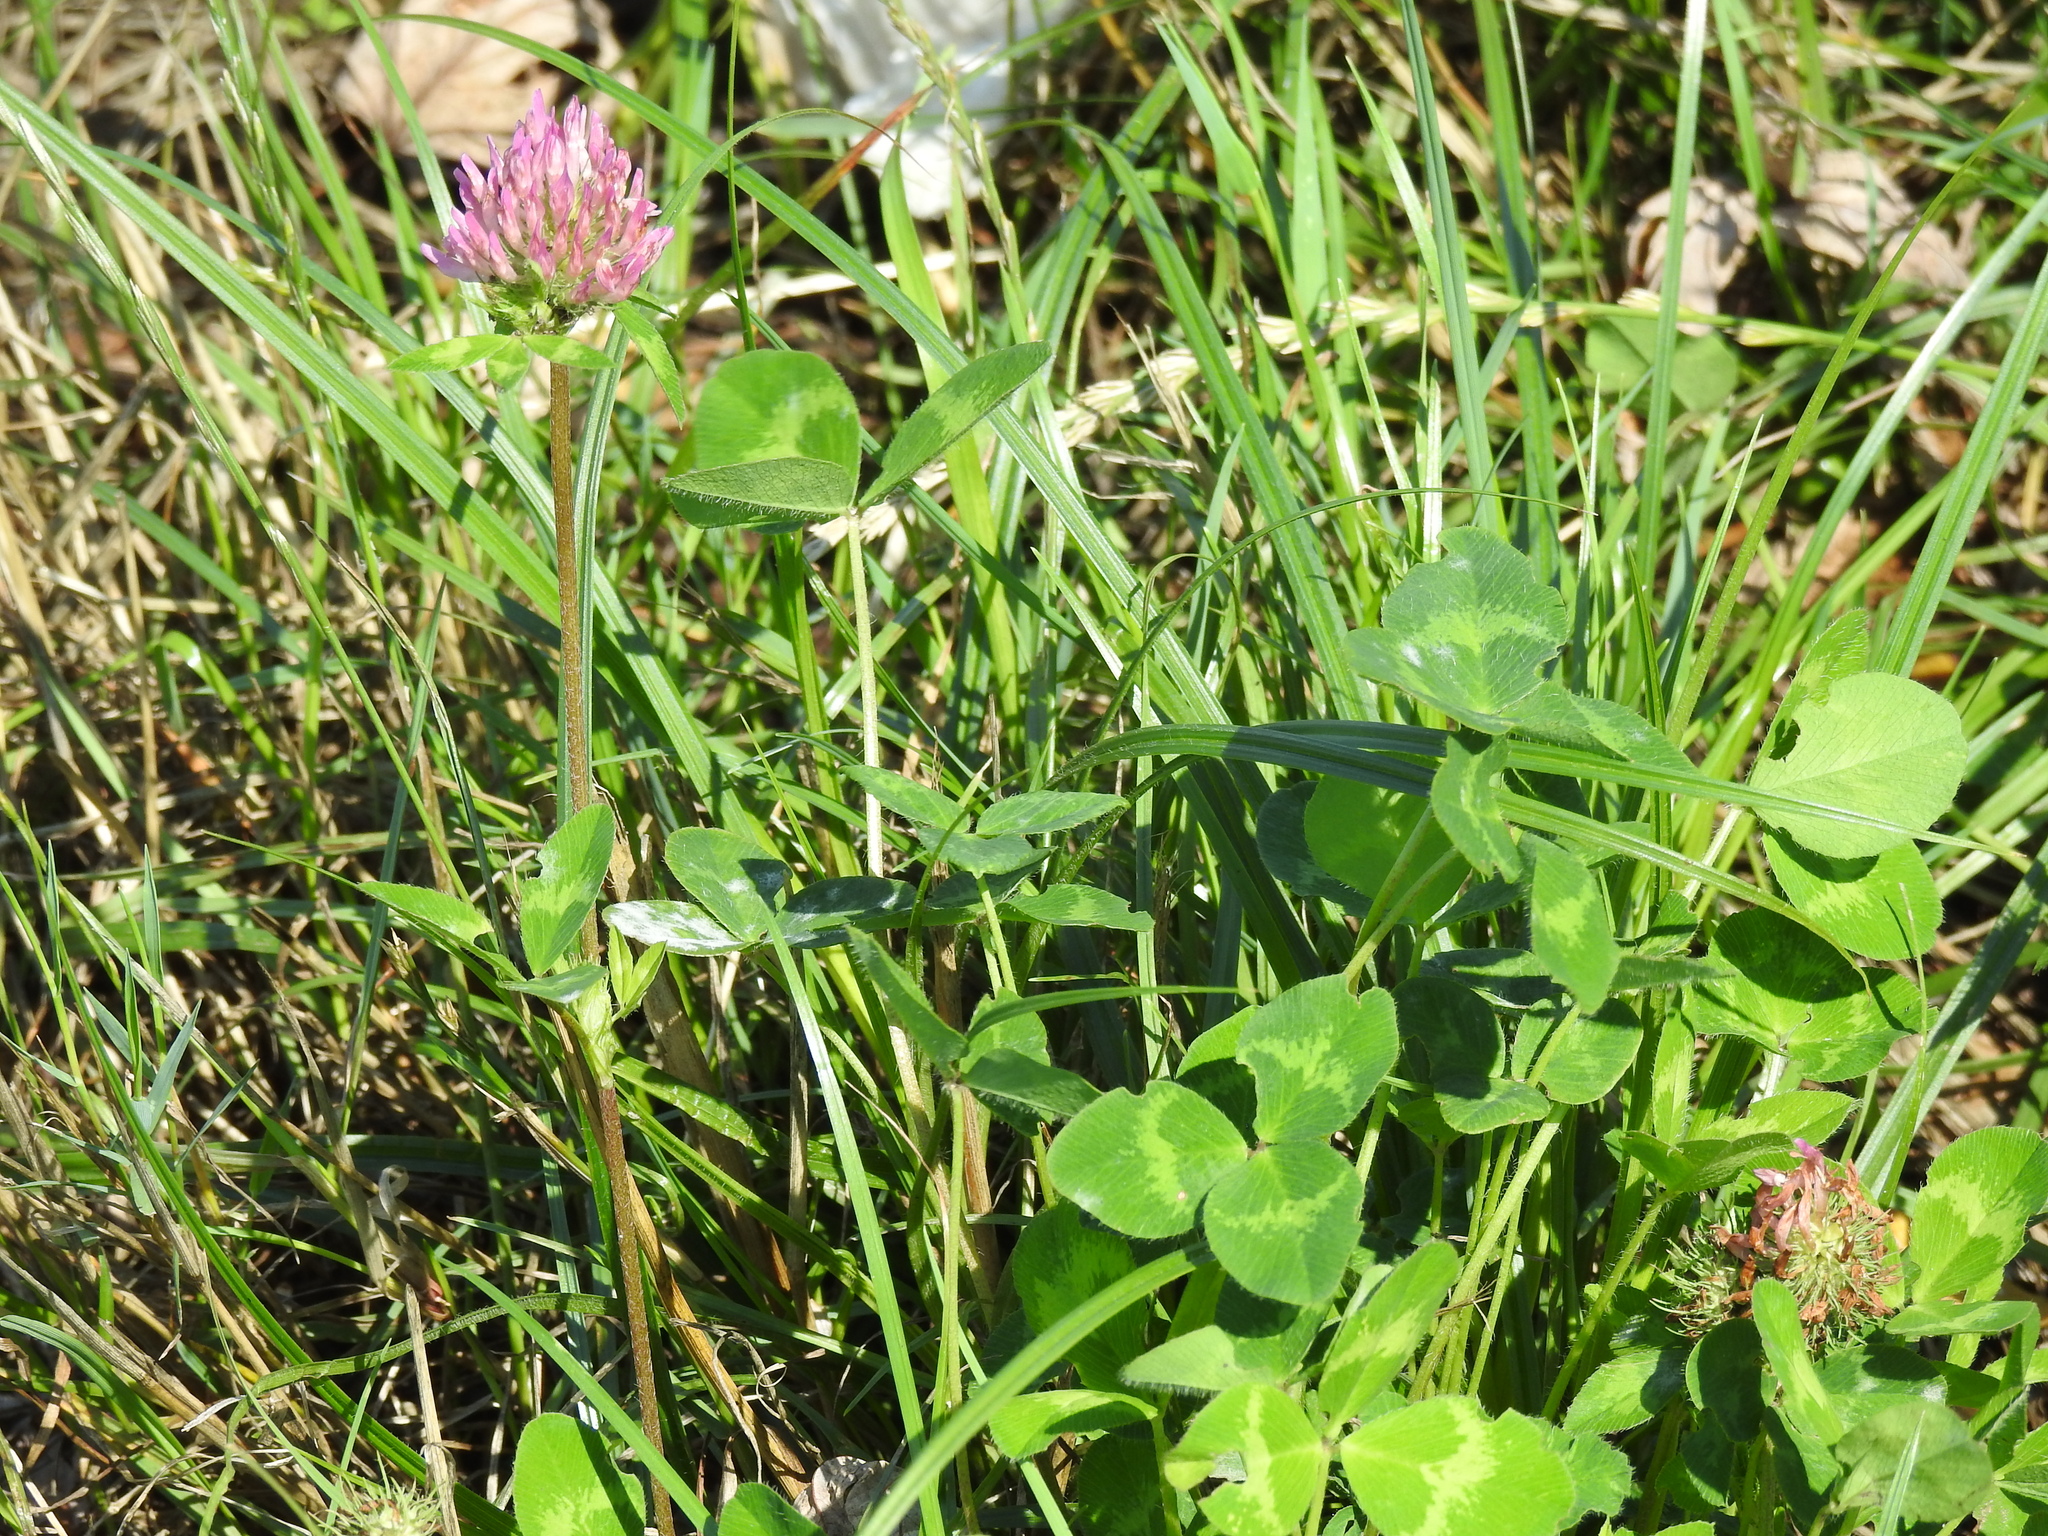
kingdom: Plantae
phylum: Tracheophyta
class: Magnoliopsida
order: Fabales
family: Fabaceae
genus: Trifolium
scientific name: Trifolium pratense
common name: Red clover
